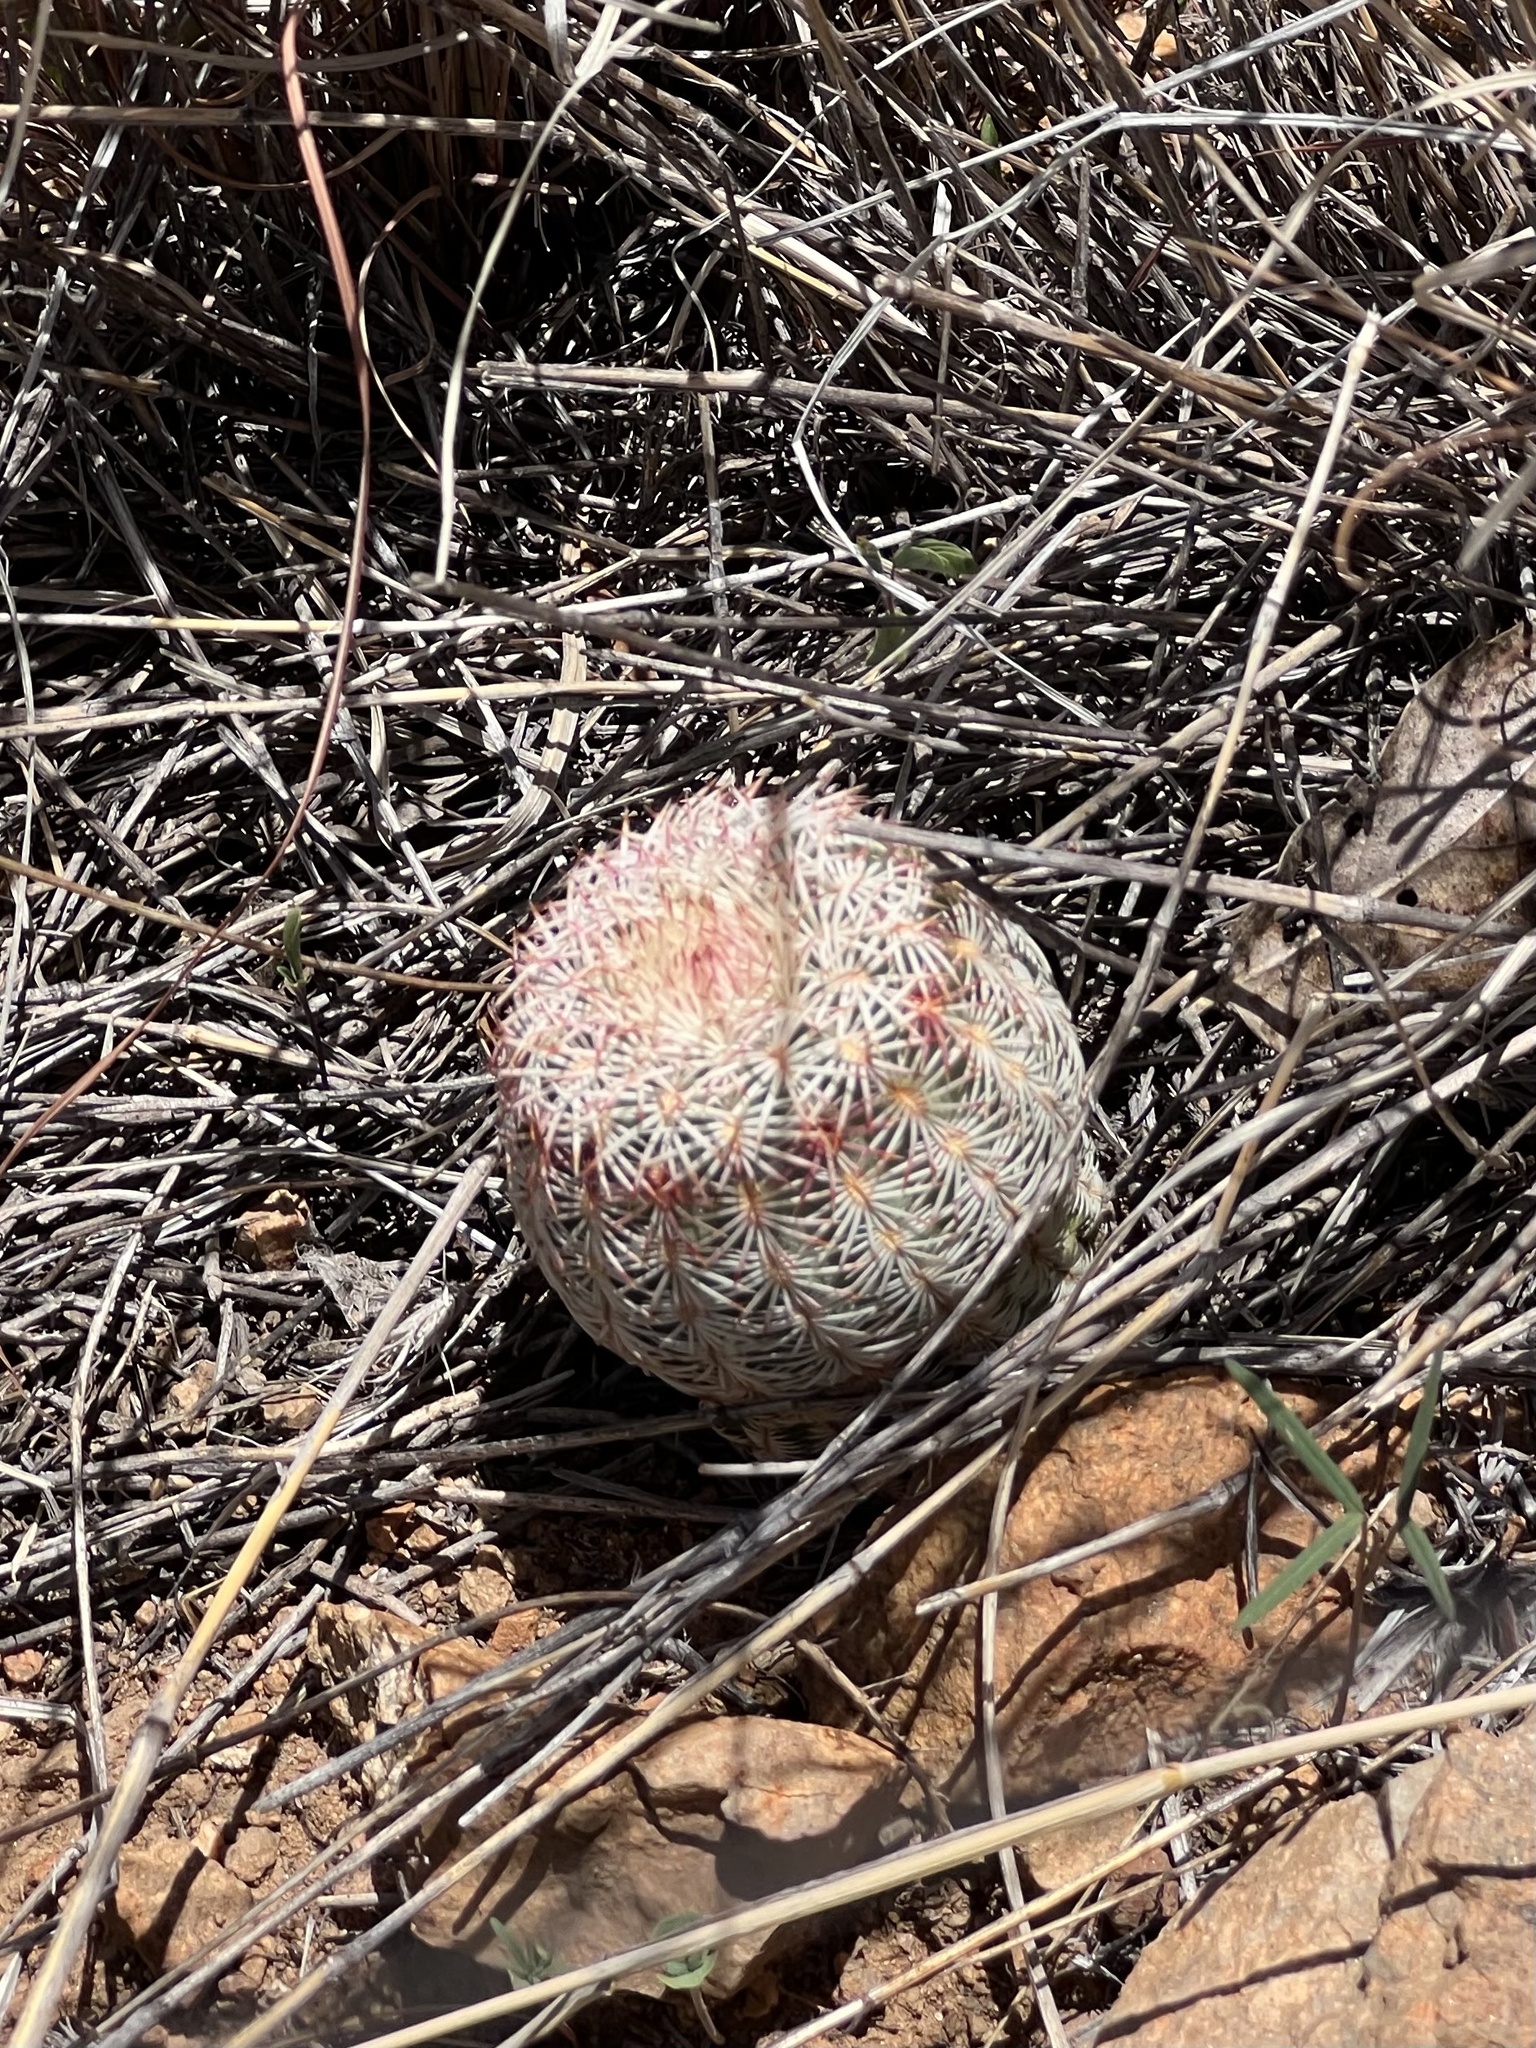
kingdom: Plantae
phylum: Tracheophyta
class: Magnoliopsida
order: Caryophyllales
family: Cactaceae
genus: Echinocereus
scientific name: Echinocereus rigidissimus
